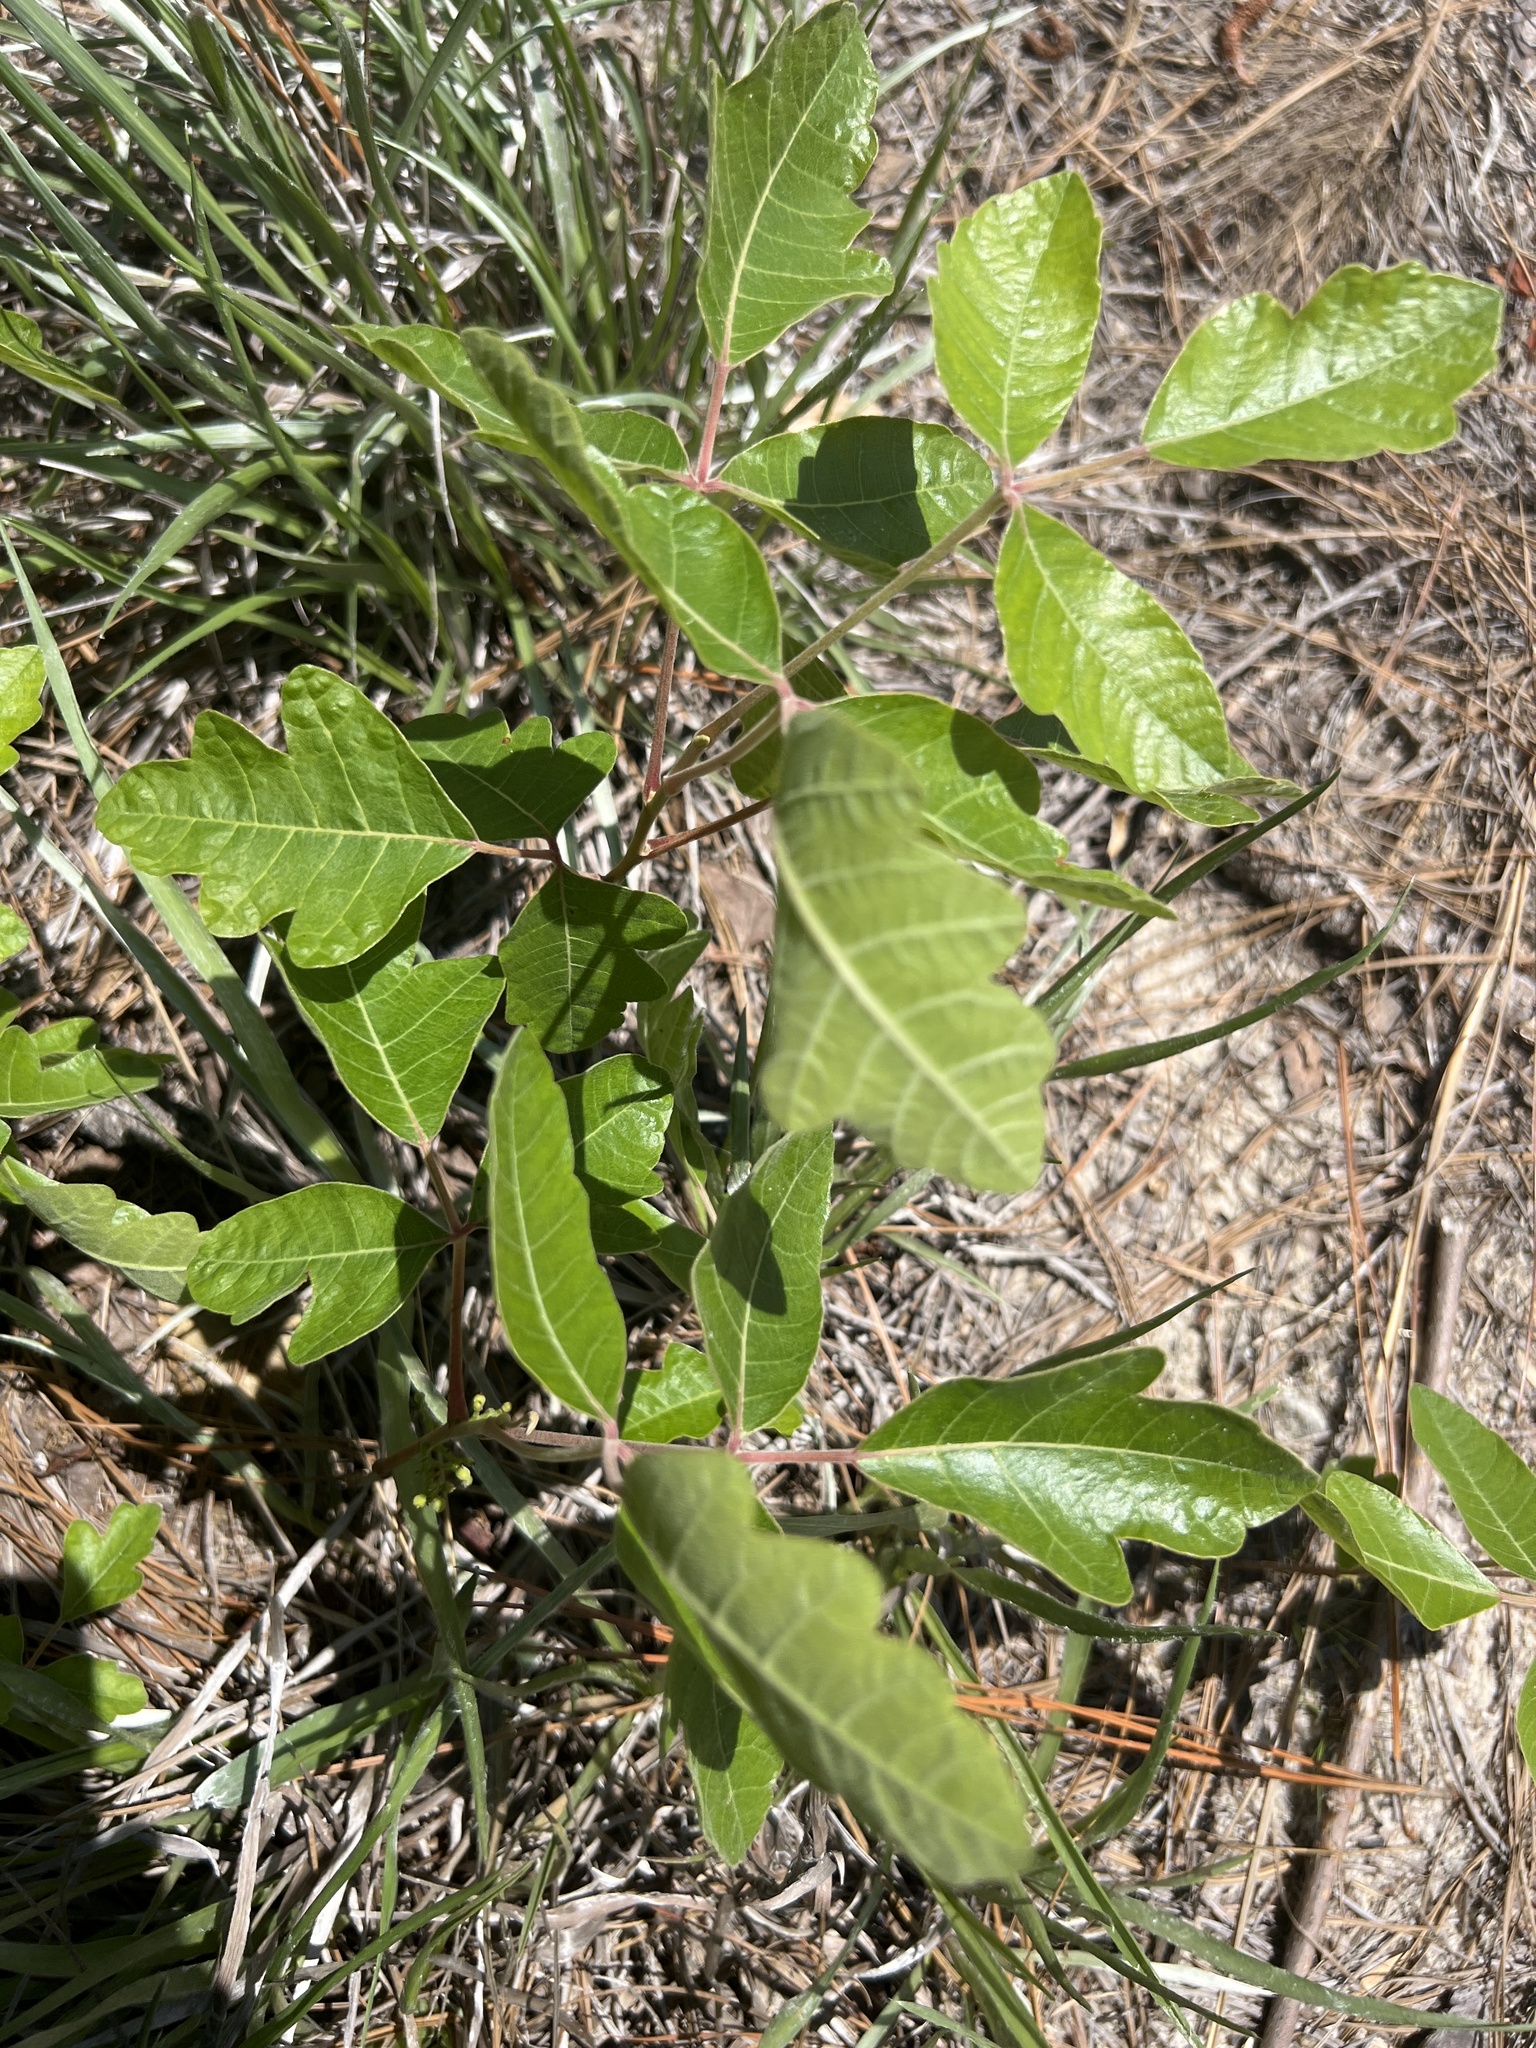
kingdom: Plantae
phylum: Tracheophyta
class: Magnoliopsida
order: Sapindales
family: Anacardiaceae
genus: Toxicodendron
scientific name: Toxicodendron pubescens
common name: Eastern poison-oak
